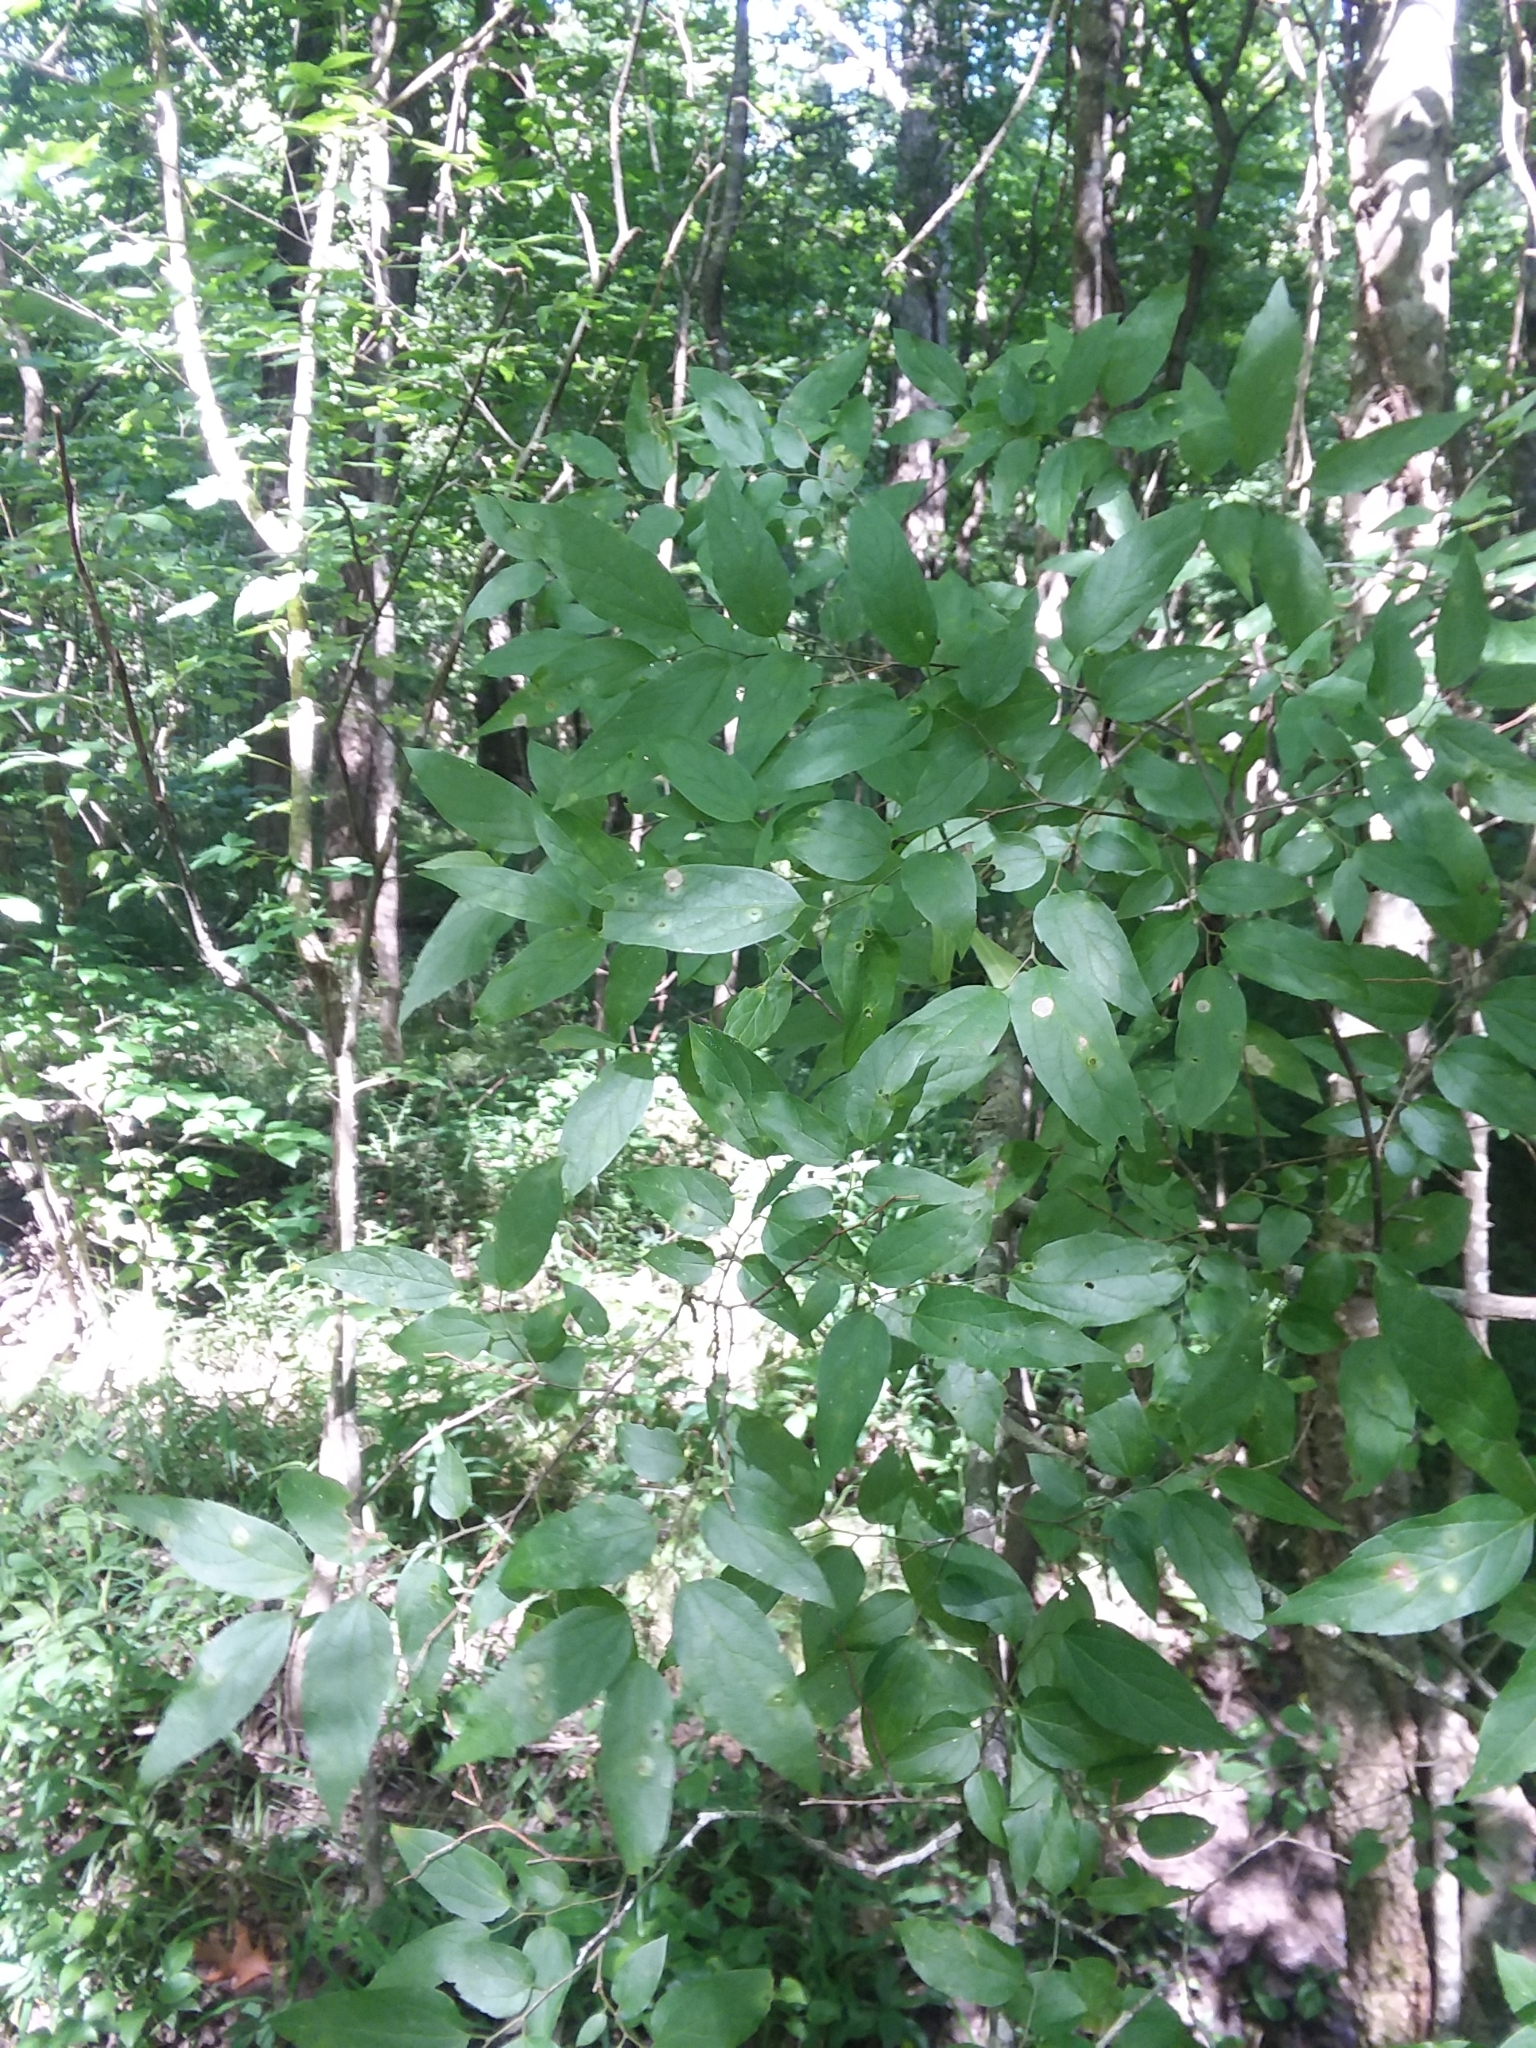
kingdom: Plantae
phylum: Tracheophyta
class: Magnoliopsida
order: Rosales
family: Cannabaceae
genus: Celtis
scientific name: Celtis laevigata
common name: Sugarberry
